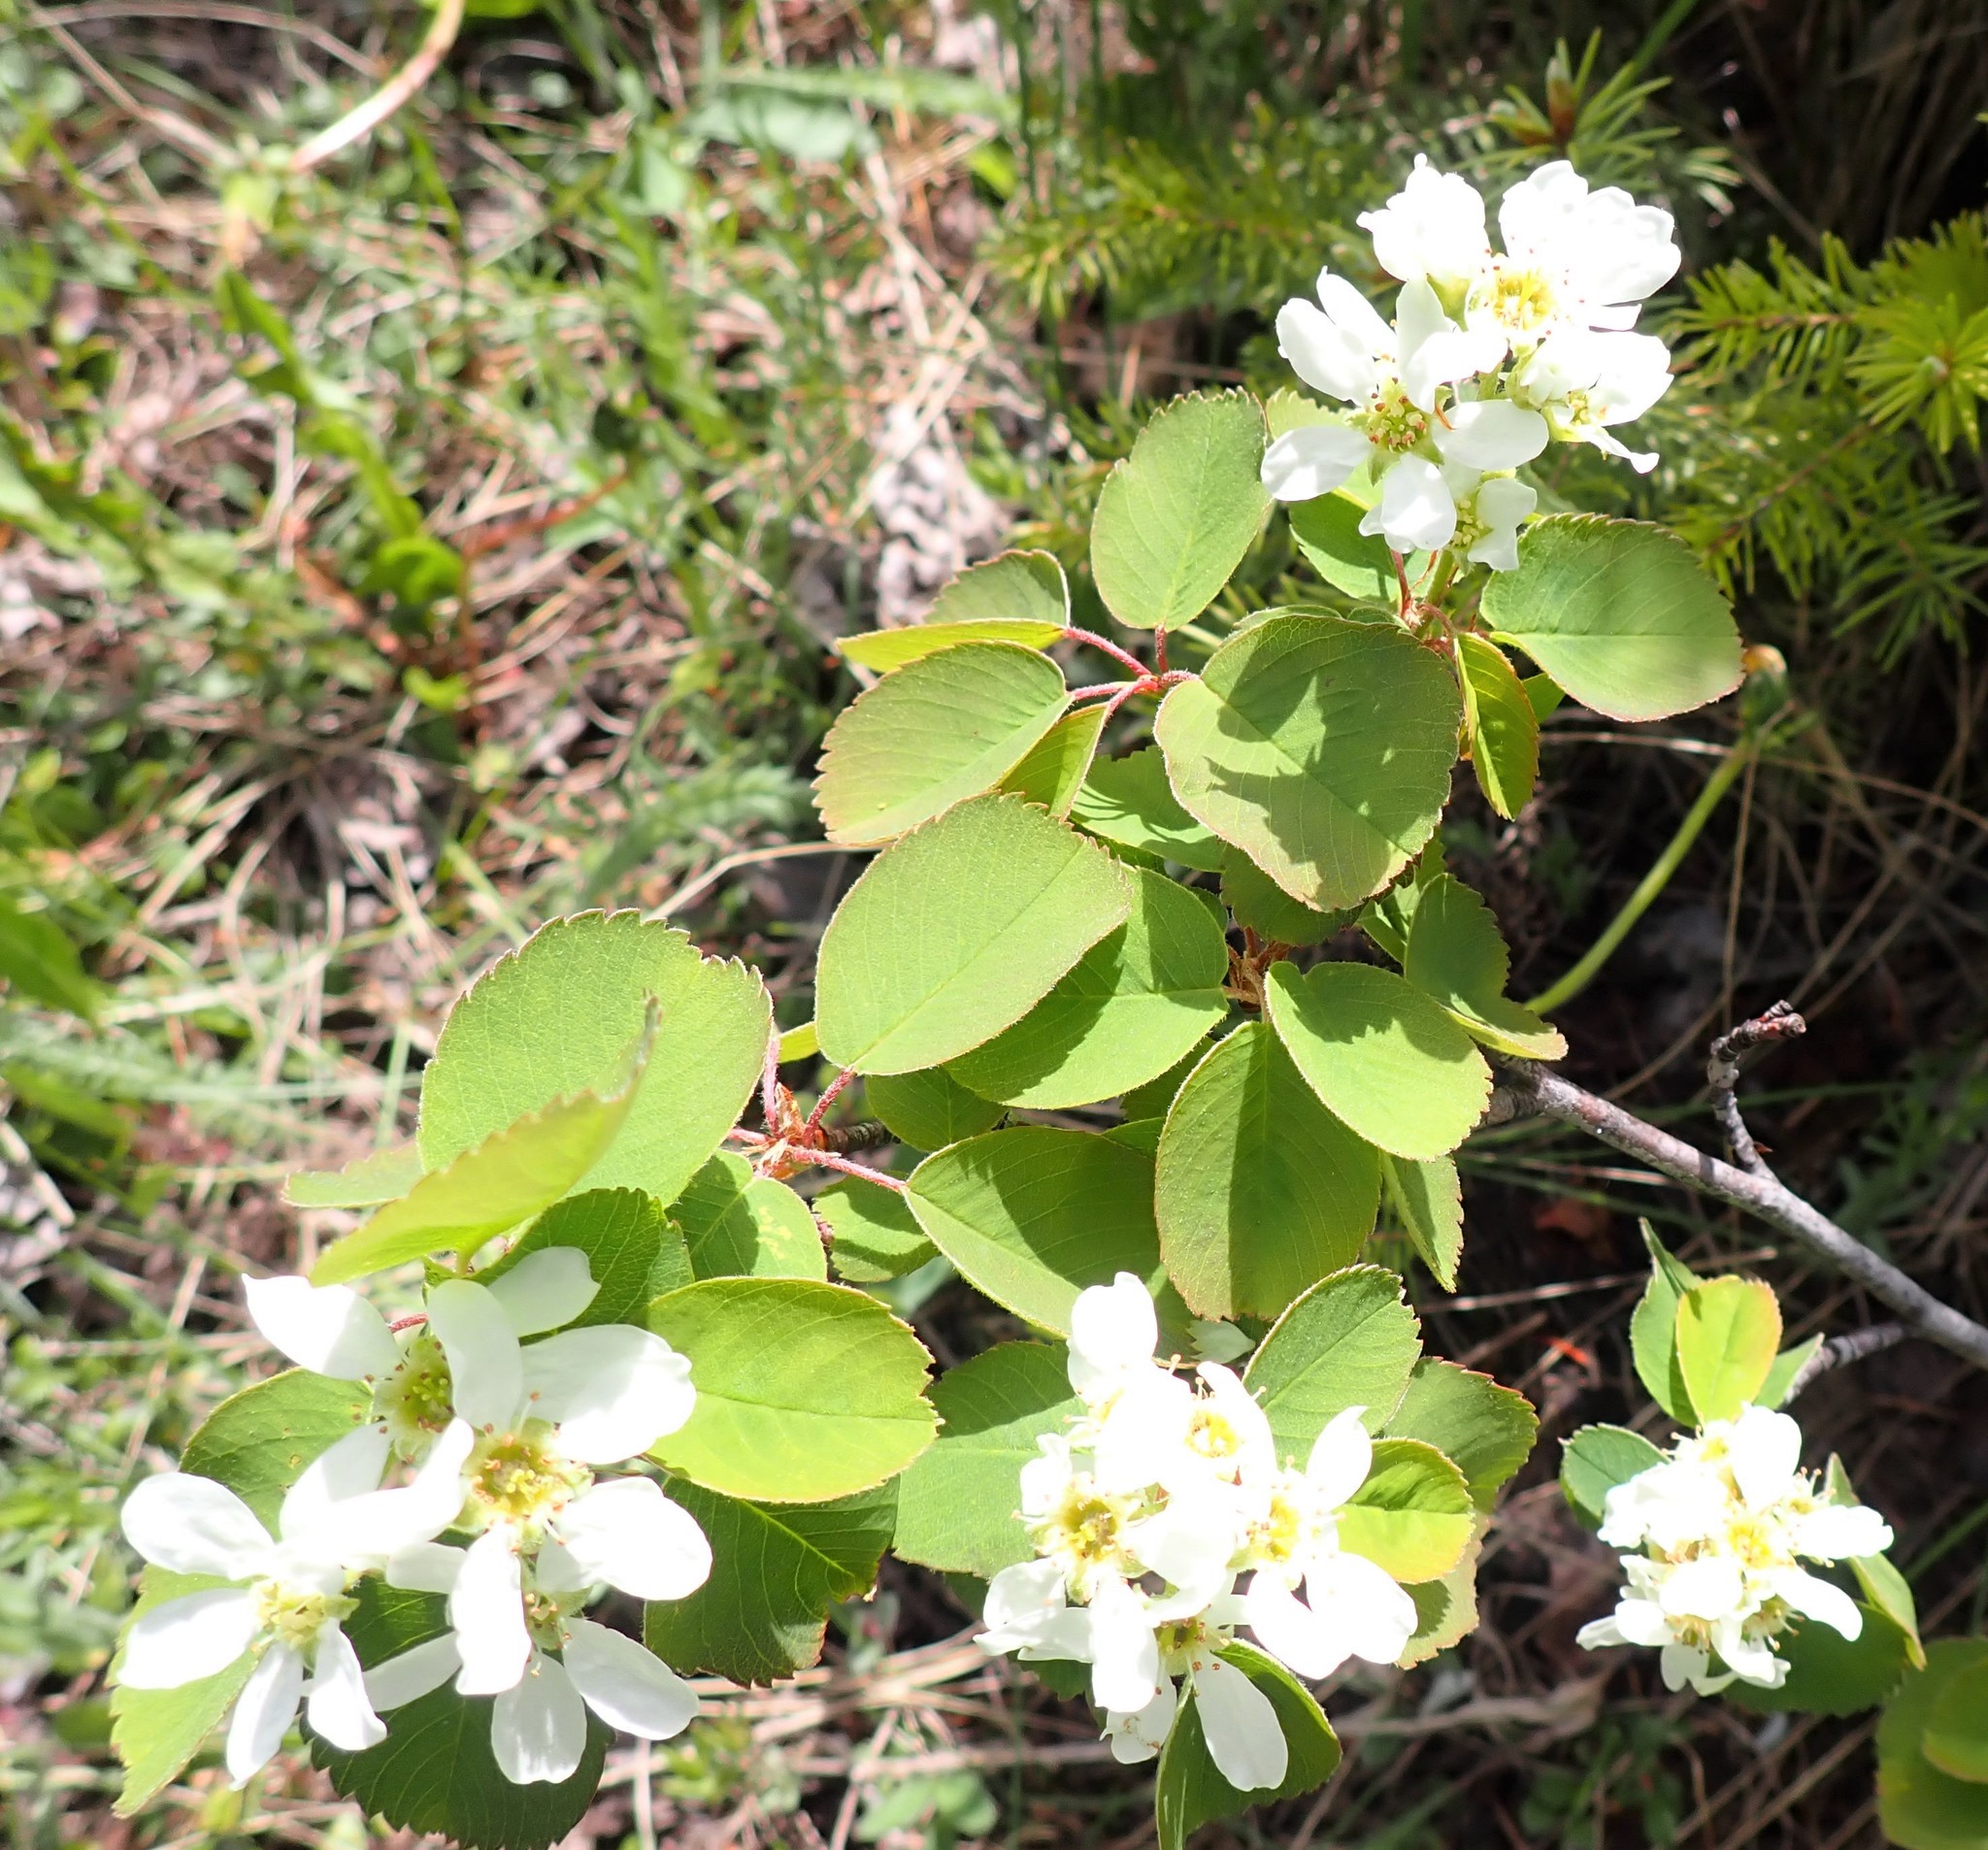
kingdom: Plantae
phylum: Tracheophyta
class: Magnoliopsida
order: Rosales
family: Rosaceae
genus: Amelanchier
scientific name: Amelanchier alnifolia
